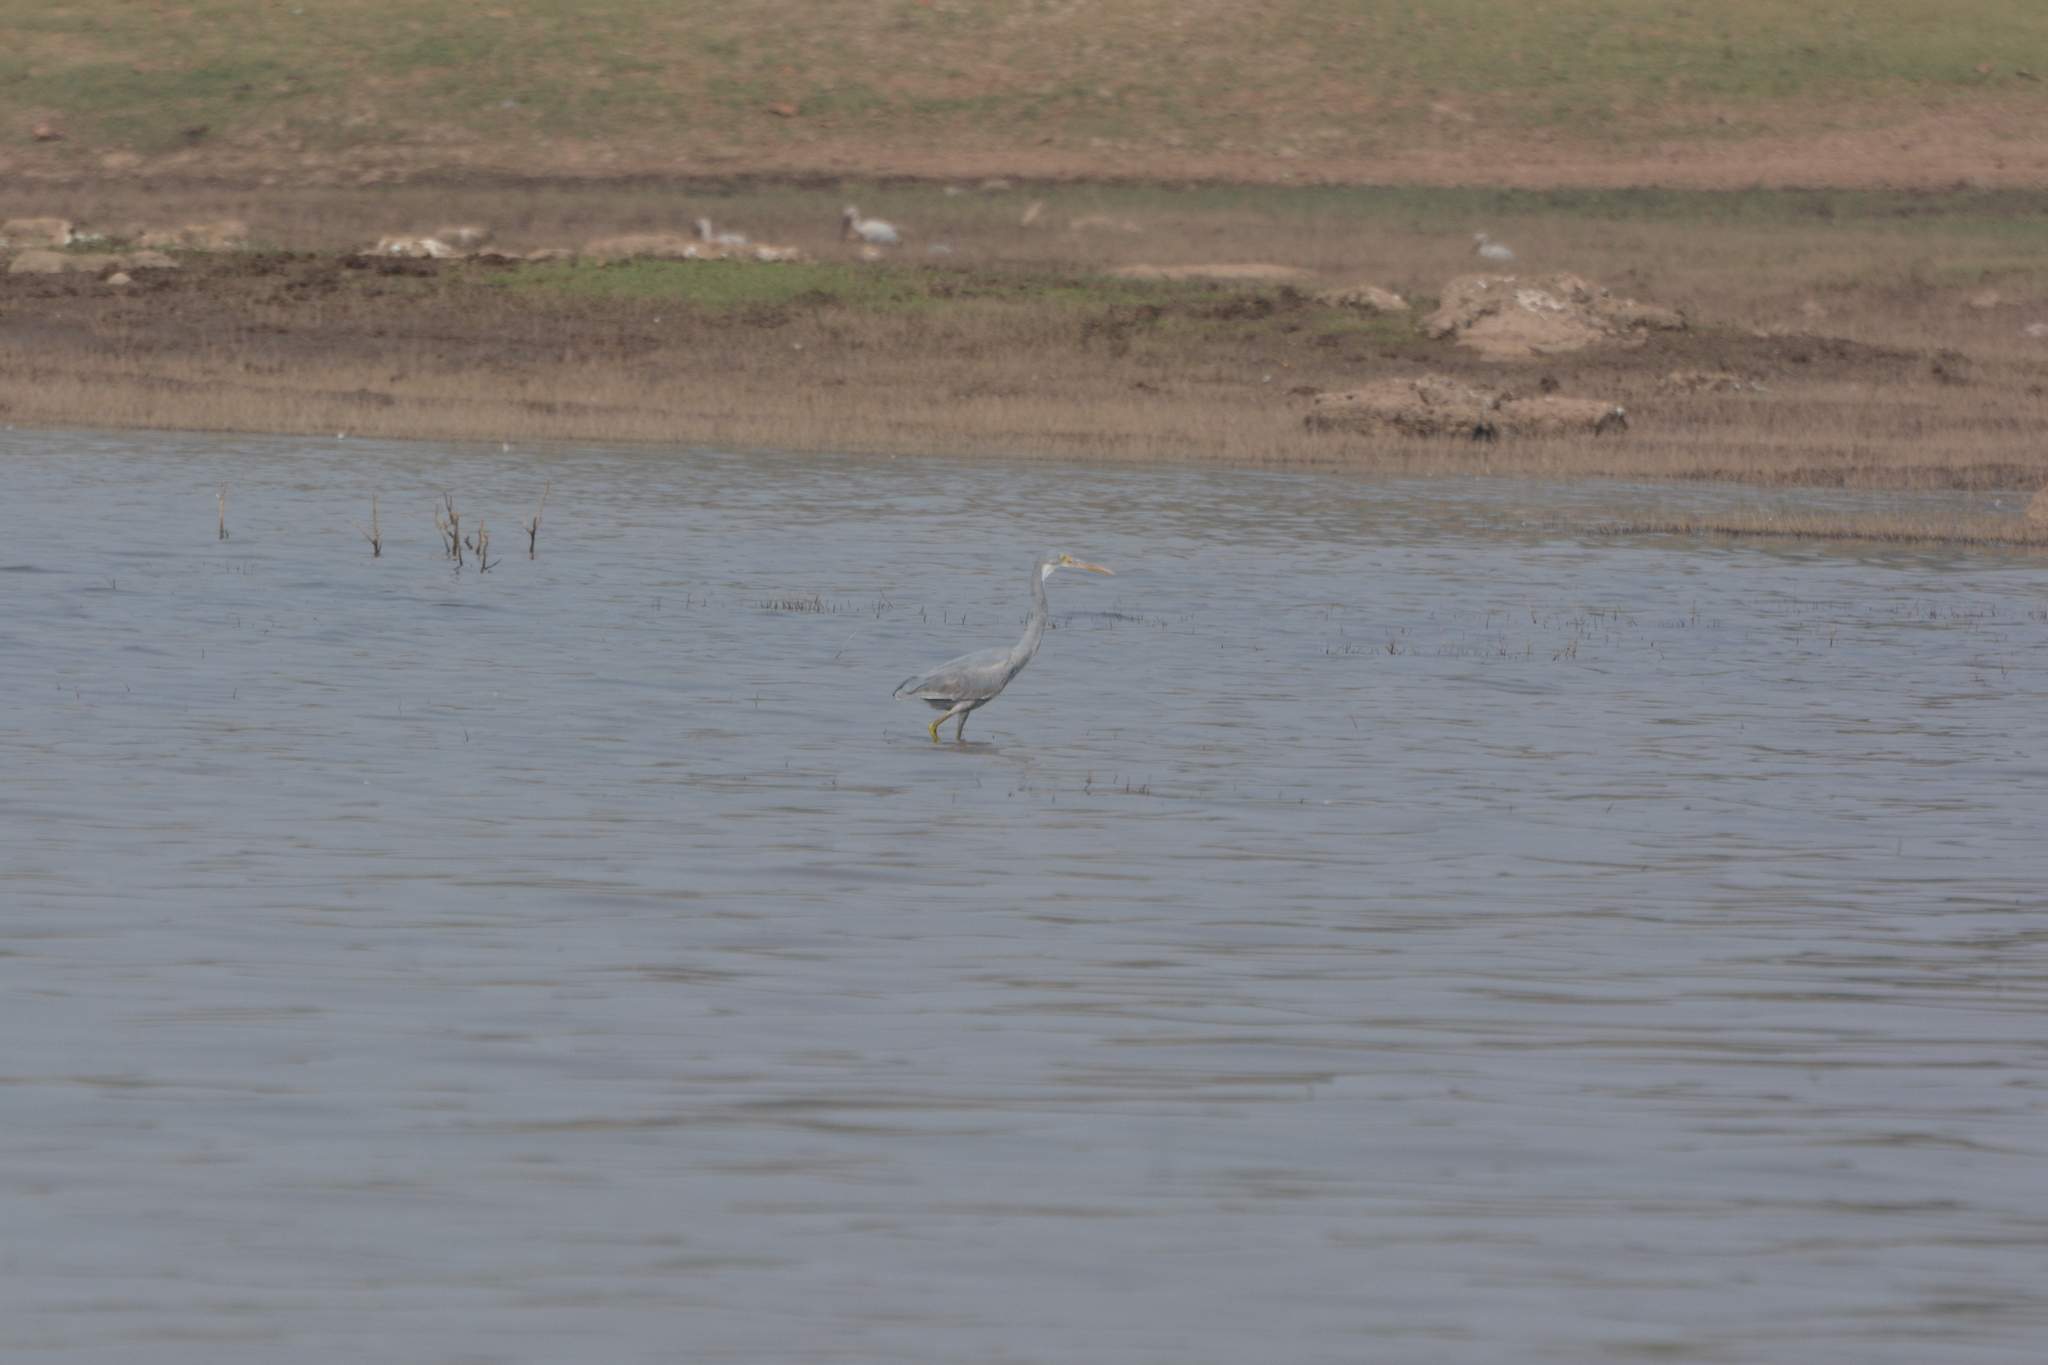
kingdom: Animalia
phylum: Chordata
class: Aves
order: Pelecaniformes
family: Ardeidae
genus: Egretta
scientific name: Egretta gularis
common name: Western reef-heron
